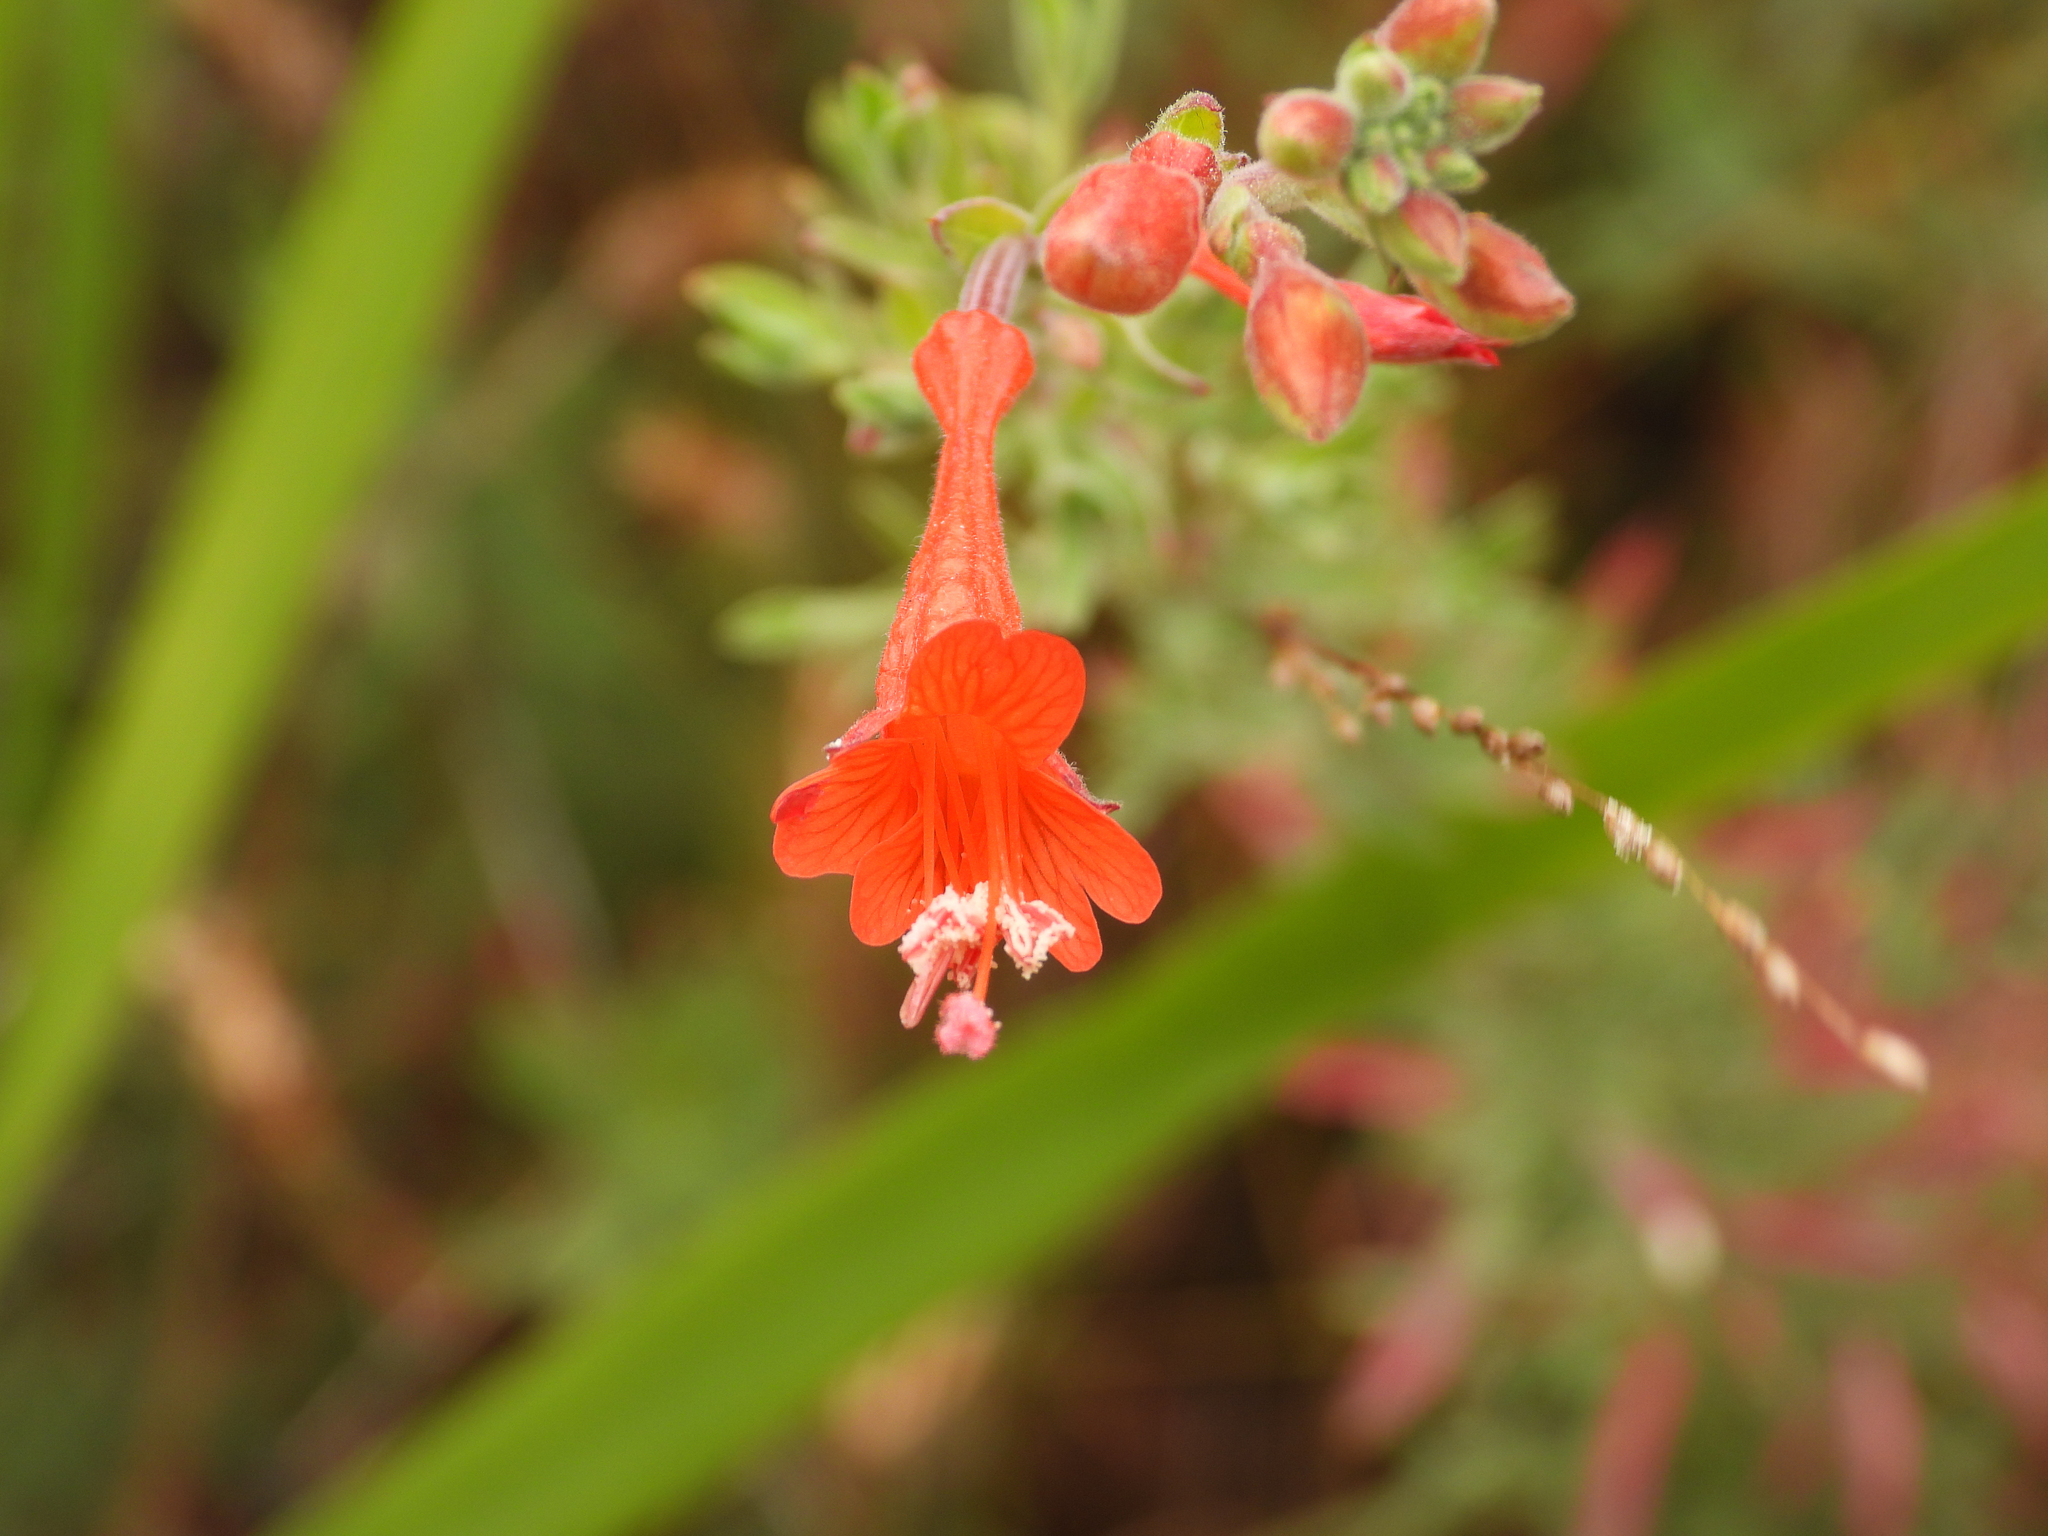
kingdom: Plantae
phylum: Tracheophyta
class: Magnoliopsida
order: Myrtales
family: Onagraceae
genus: Epilobium
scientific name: Epilobium canum
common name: California-fuchsia
